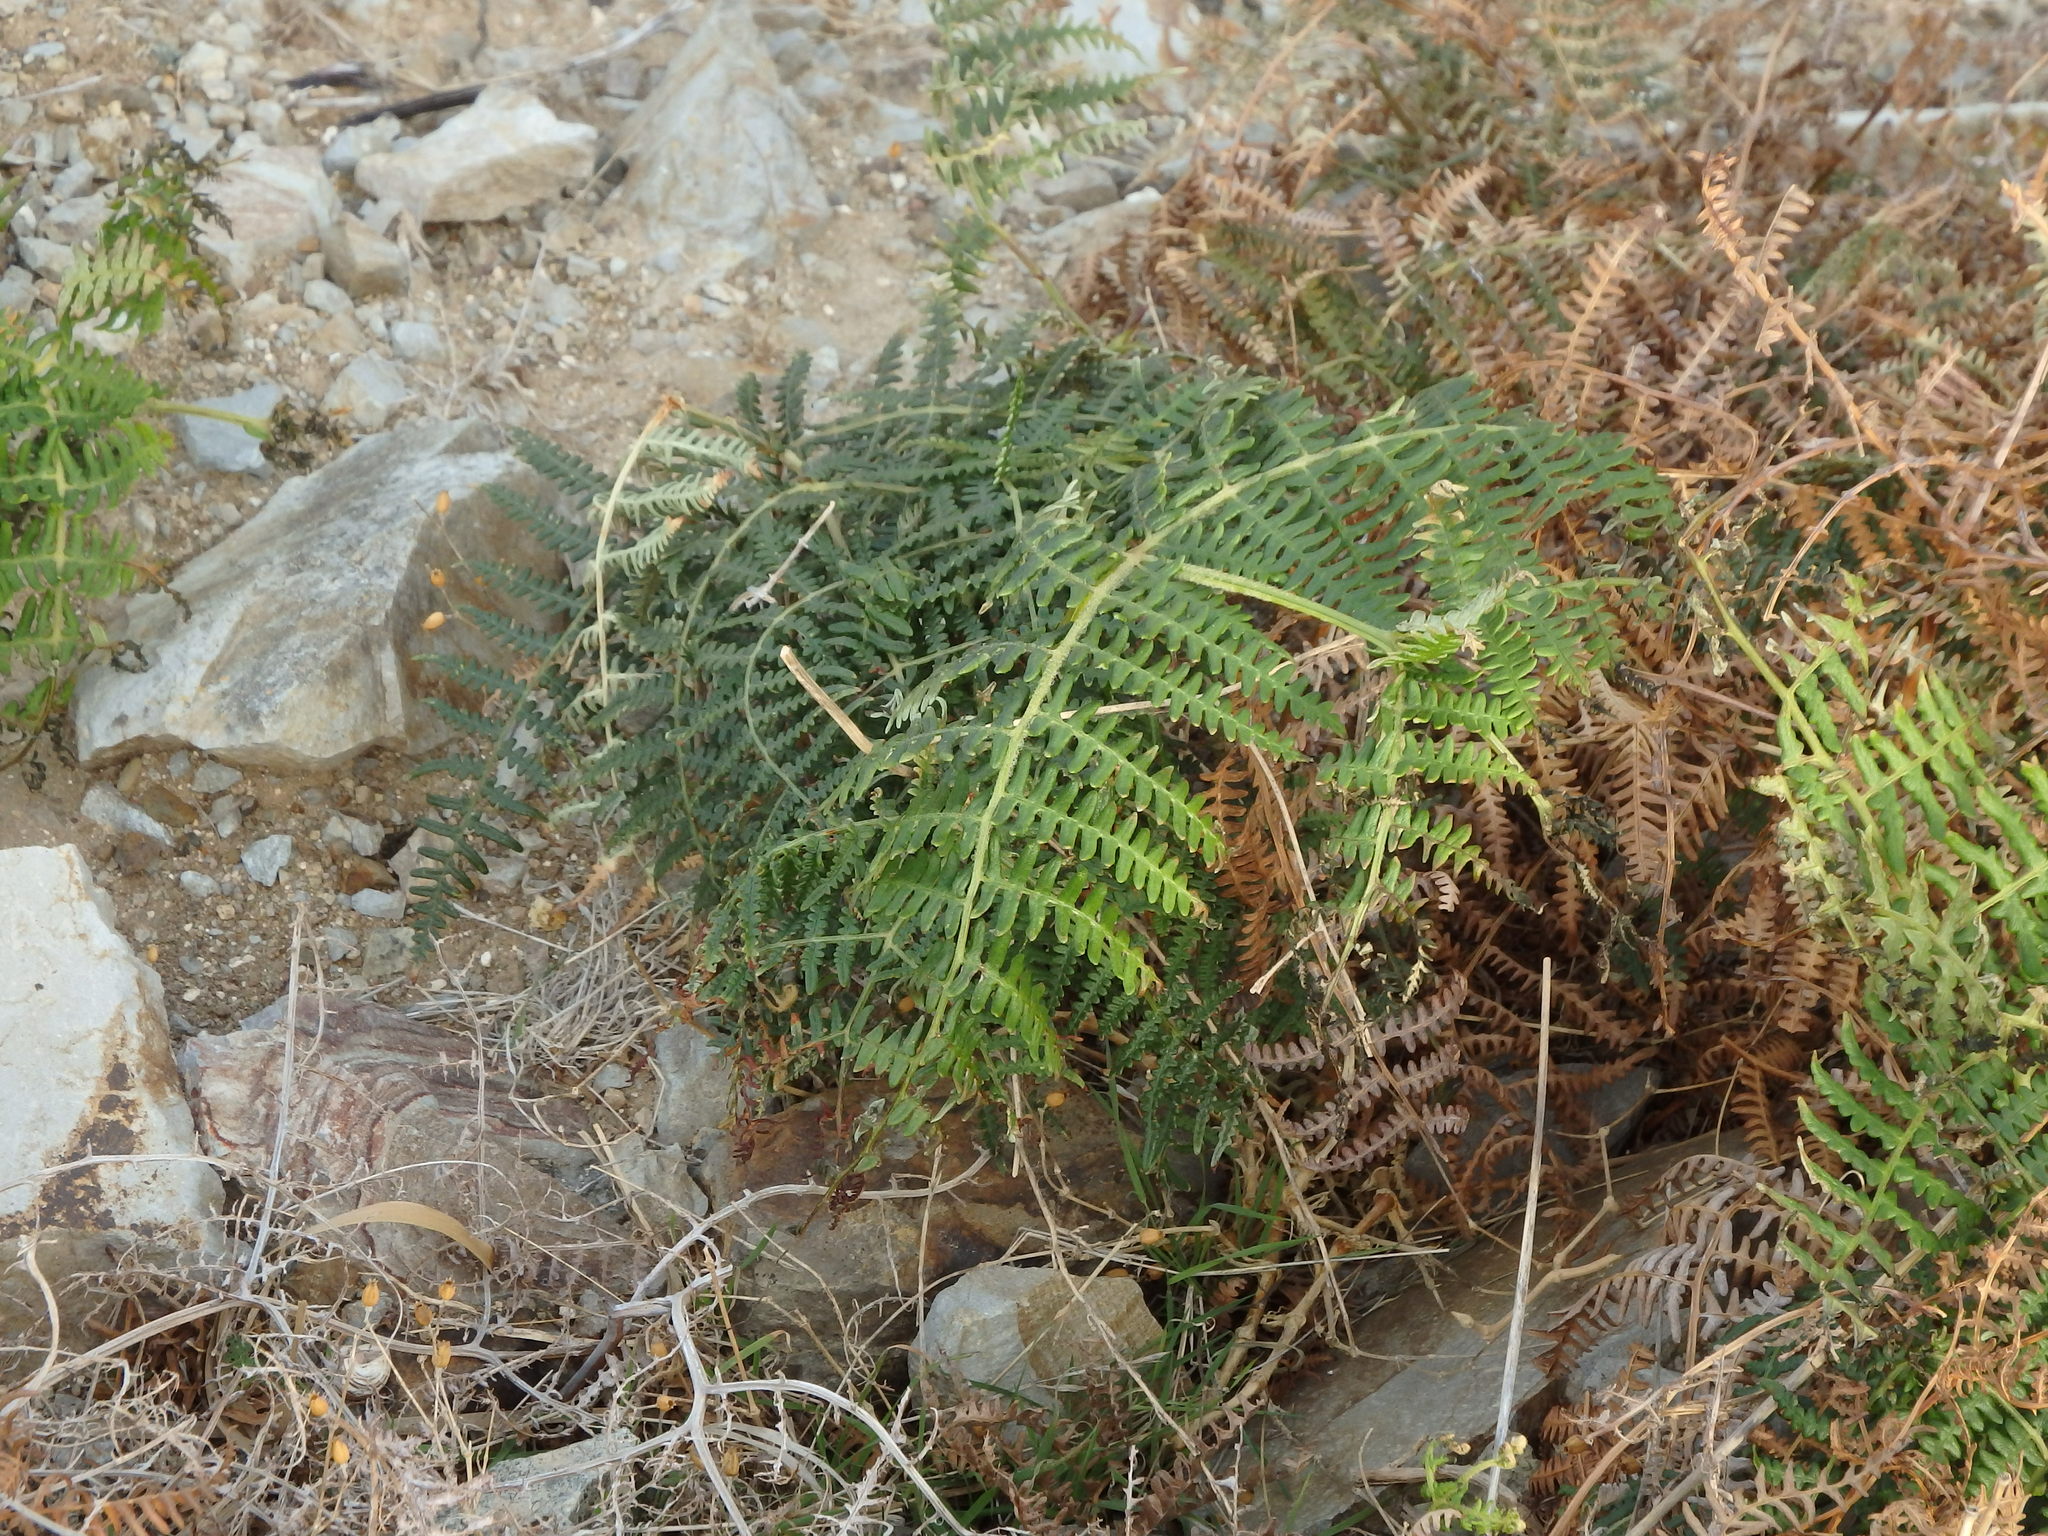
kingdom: Plantae
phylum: Tracheophyta
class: Polypodiopsida
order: Polypodiales
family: Dennstaedtiaceae
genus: Pteridium
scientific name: Pteridium aquilinum
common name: Bracken
